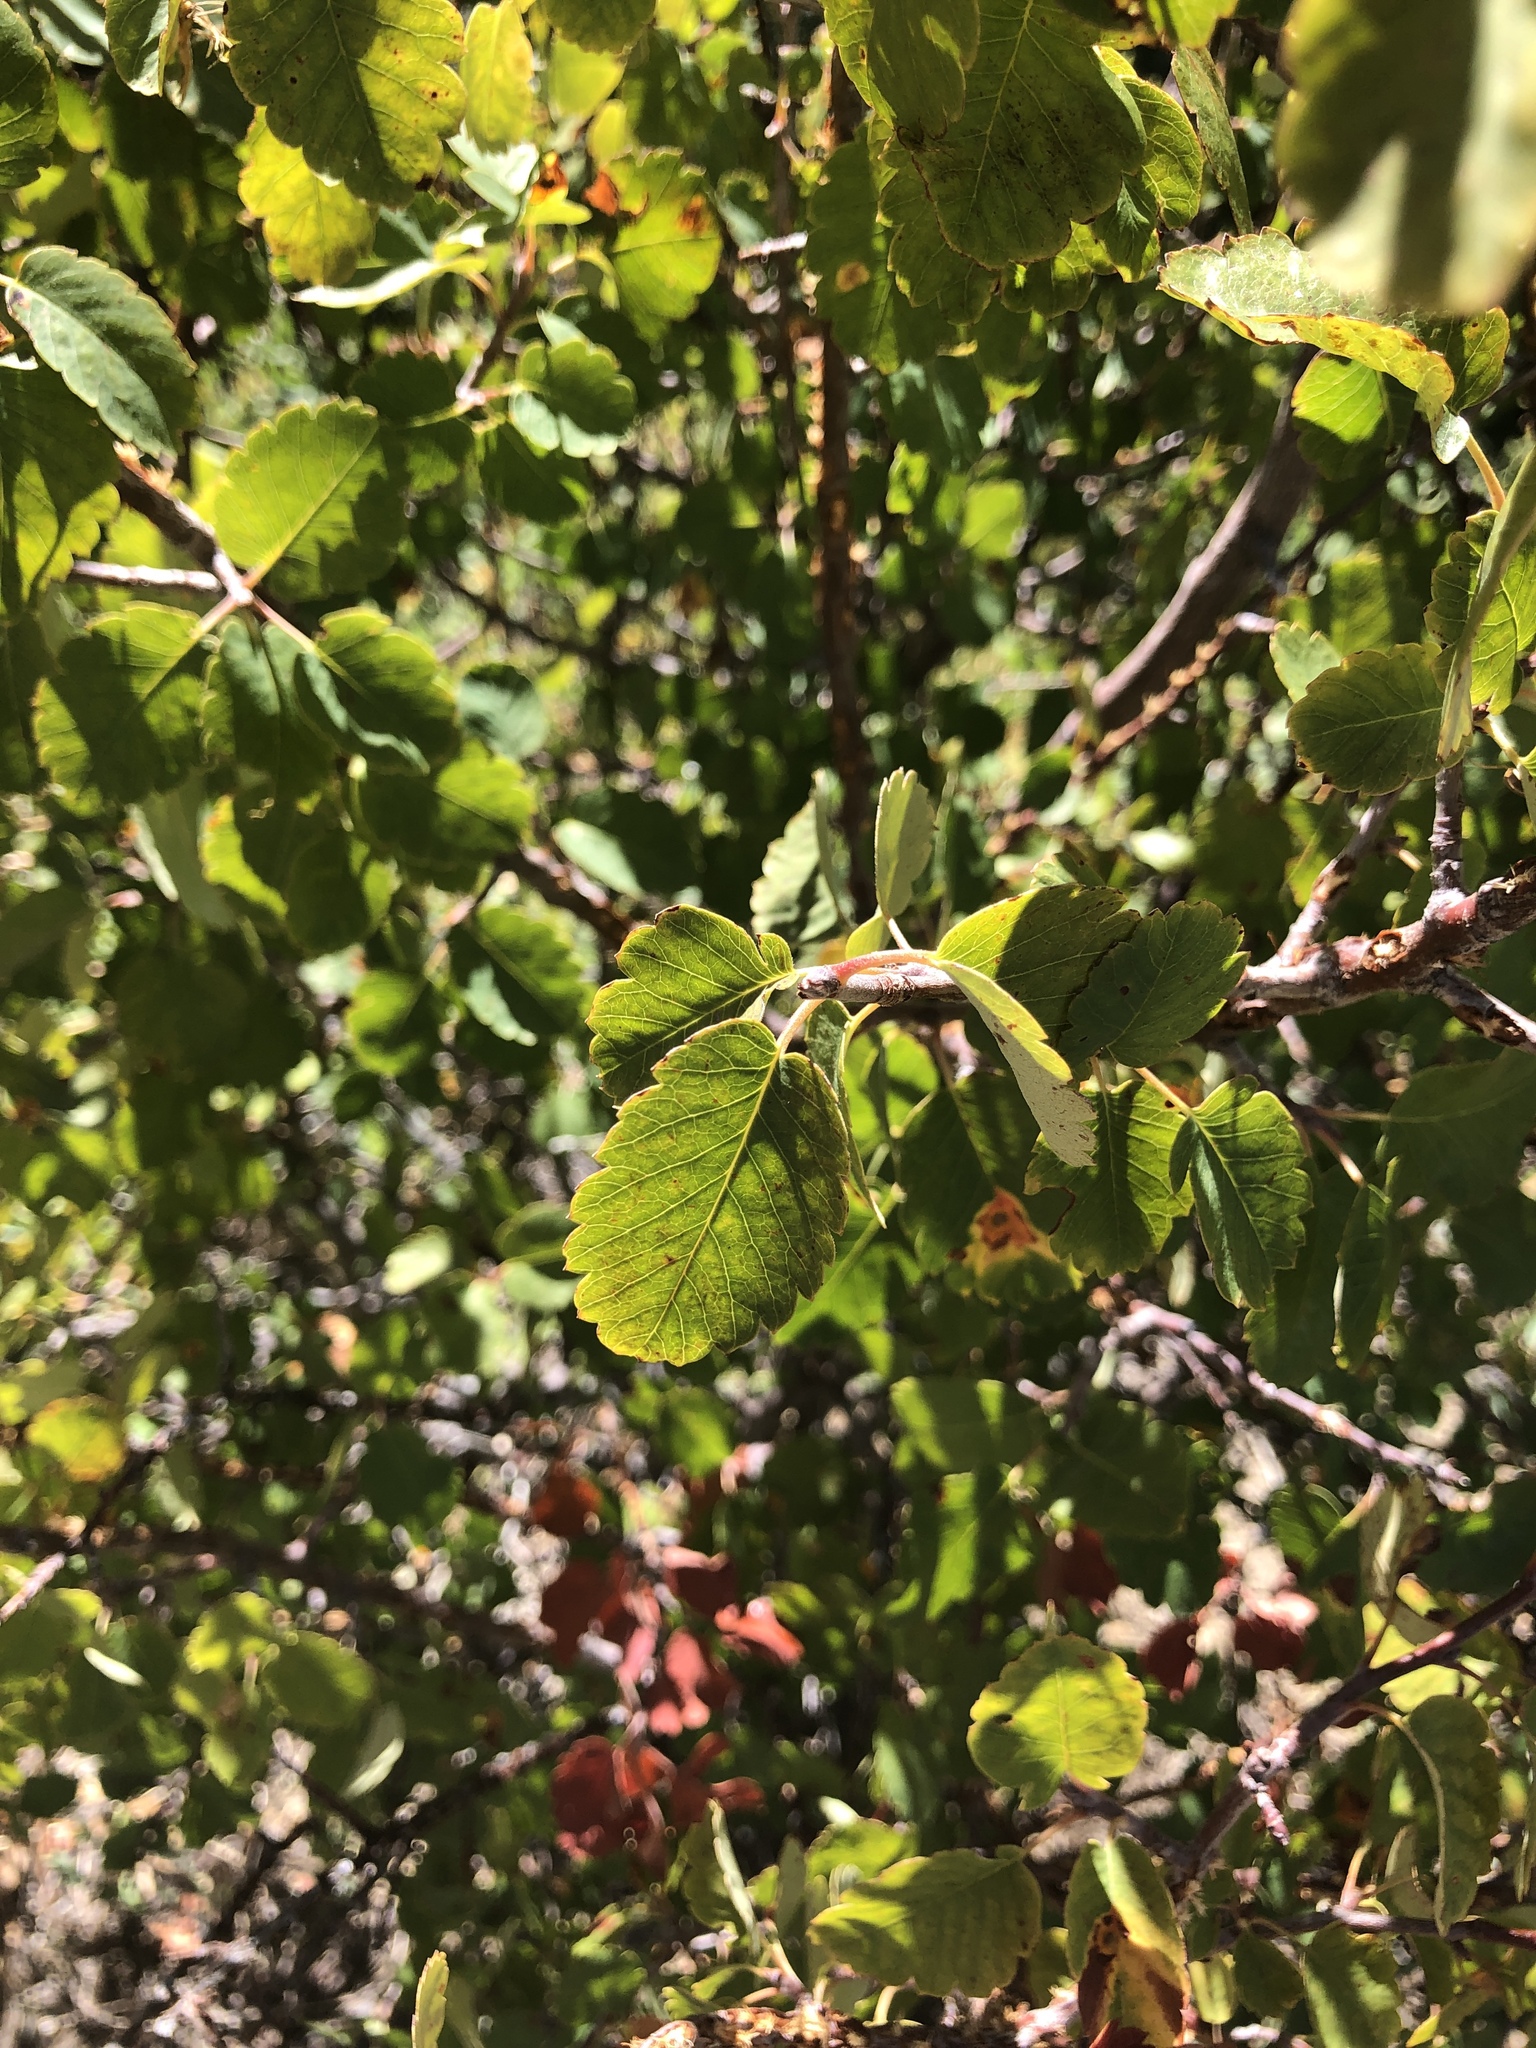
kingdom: Plantae
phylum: Tracheophyta
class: Magnoliopsida
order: Rosales
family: Rosaceae
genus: Amelanchier
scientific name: Amelanchier utahensis
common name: Utah serviceberry
